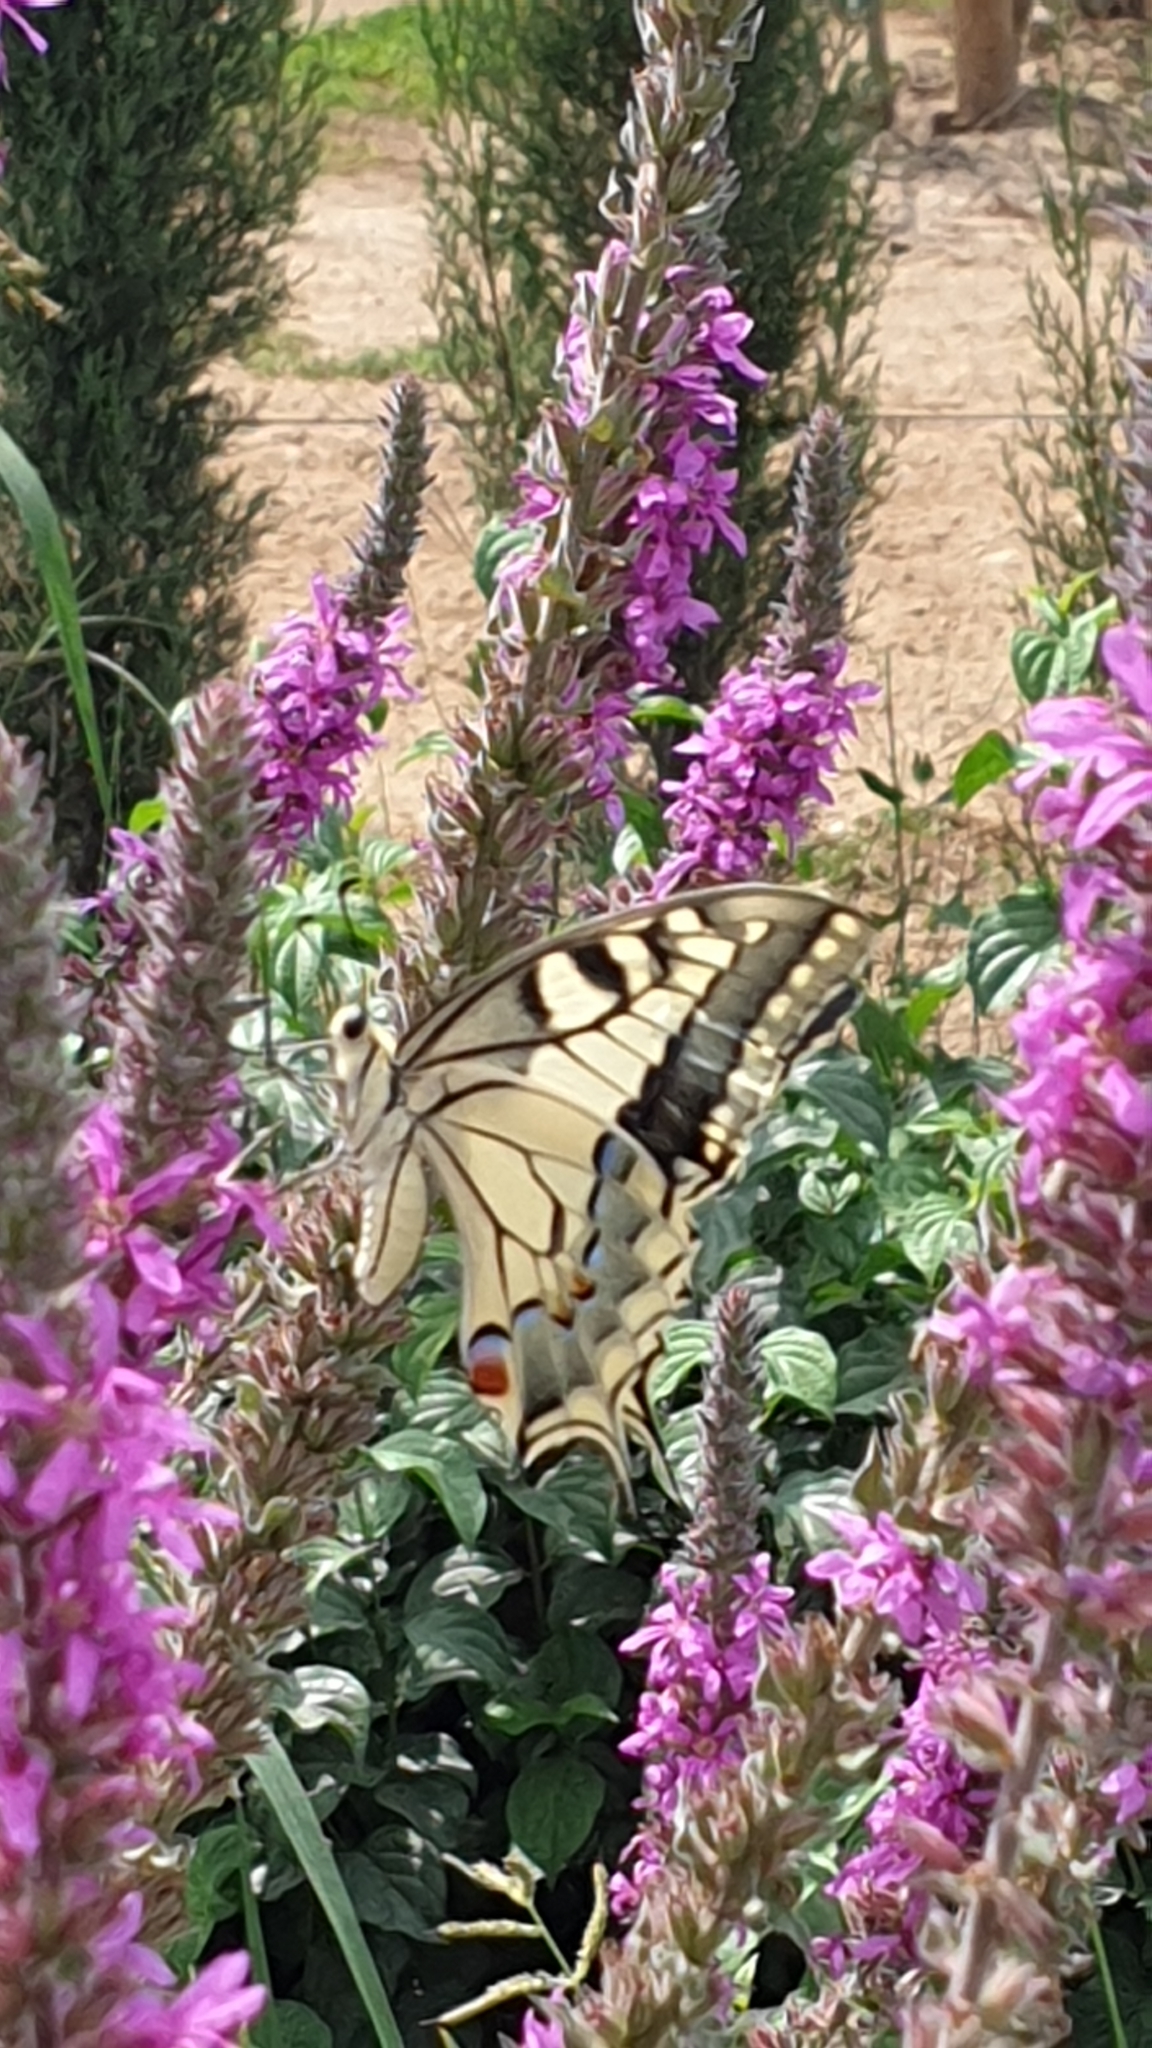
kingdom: Animalia
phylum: Arthropoda
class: Insecta
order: Lepidoptera
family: Papilionidae
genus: Papilio
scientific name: Papilio machaon
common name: Swallowtail
